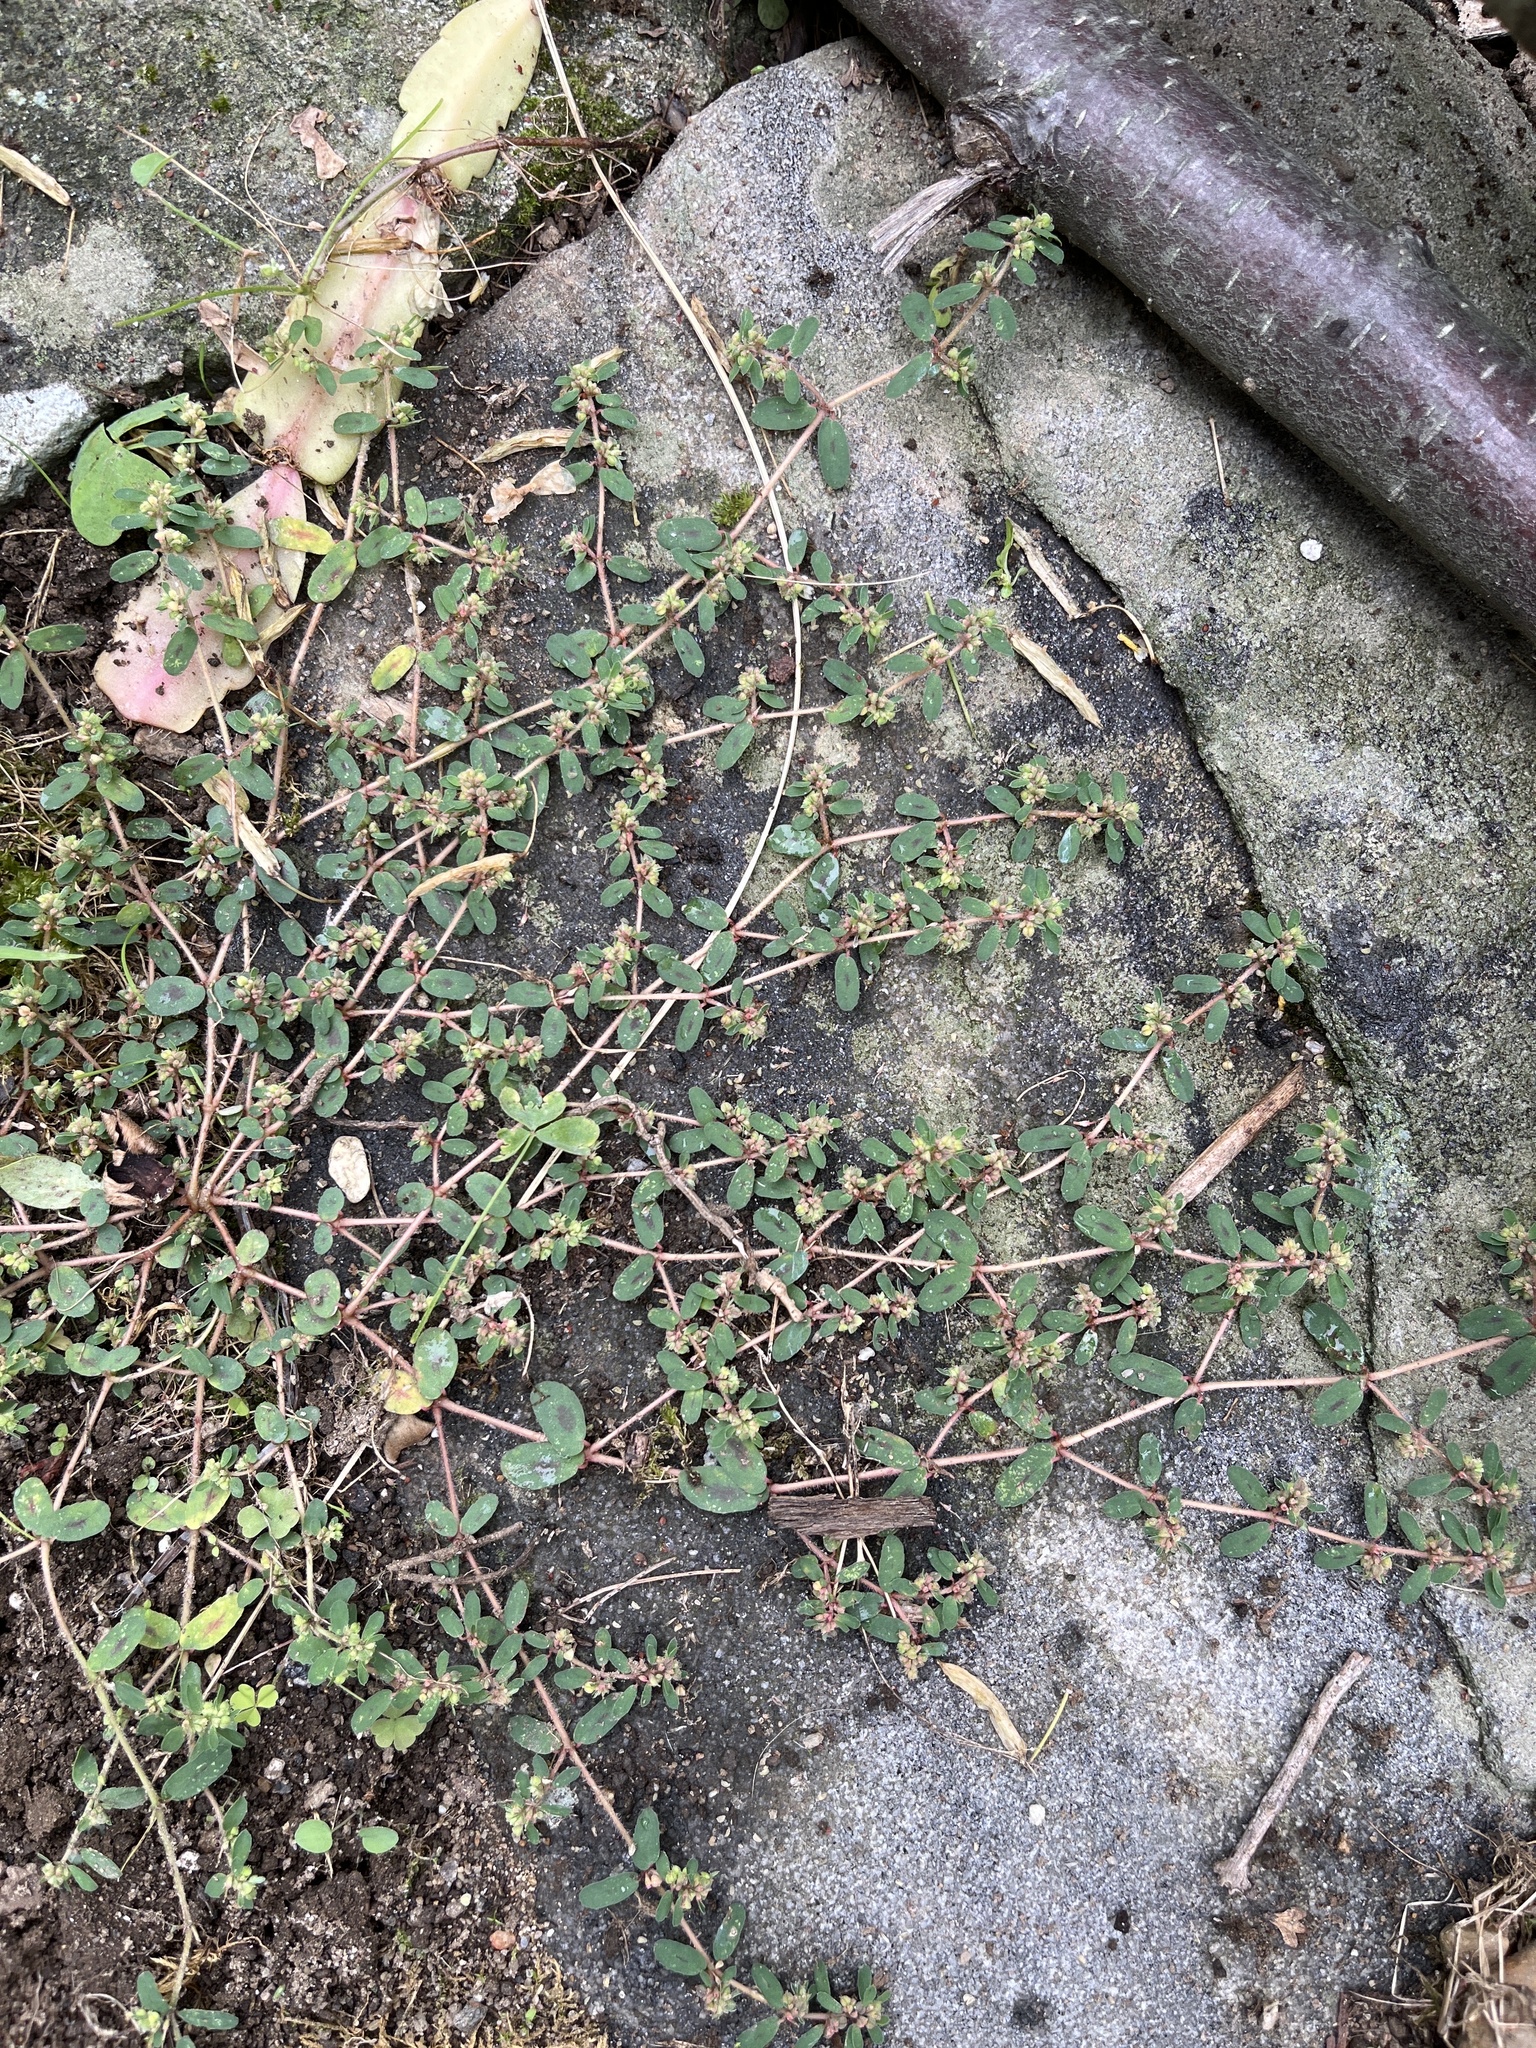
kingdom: Plantae
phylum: Tracheophyta
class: Magnoliopsida
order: Malpighiales
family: Euphorbiaceae
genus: Euphorbia
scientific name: Euphorbia maculata
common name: Spotted spurge
